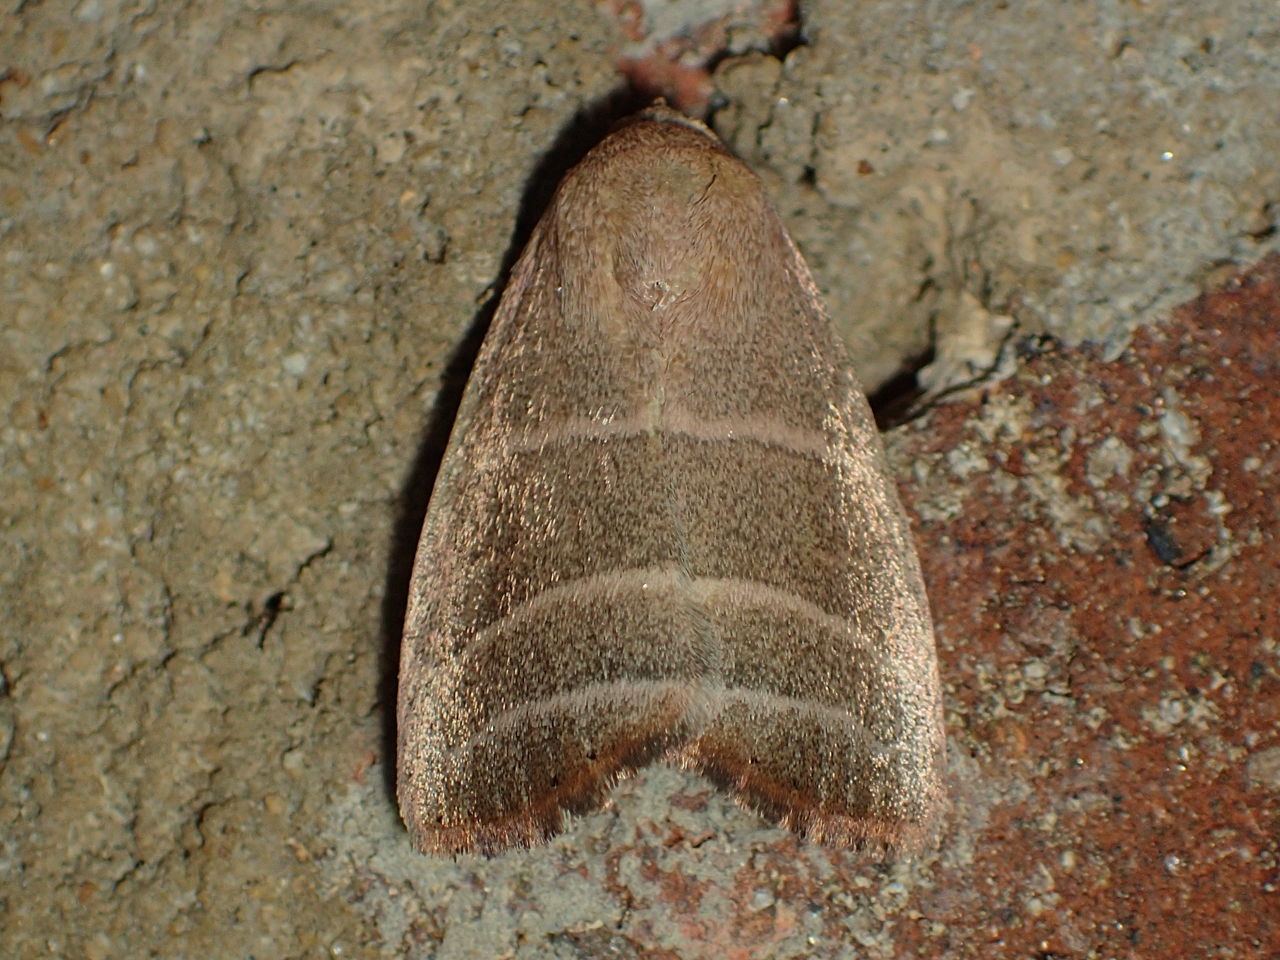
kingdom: Animalia
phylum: Arthropoda
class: Insecta
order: Lepidoptera
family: Noctuidae
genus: Bagisara
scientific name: Bagisara rectifascia
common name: Straight lined mallow moth
